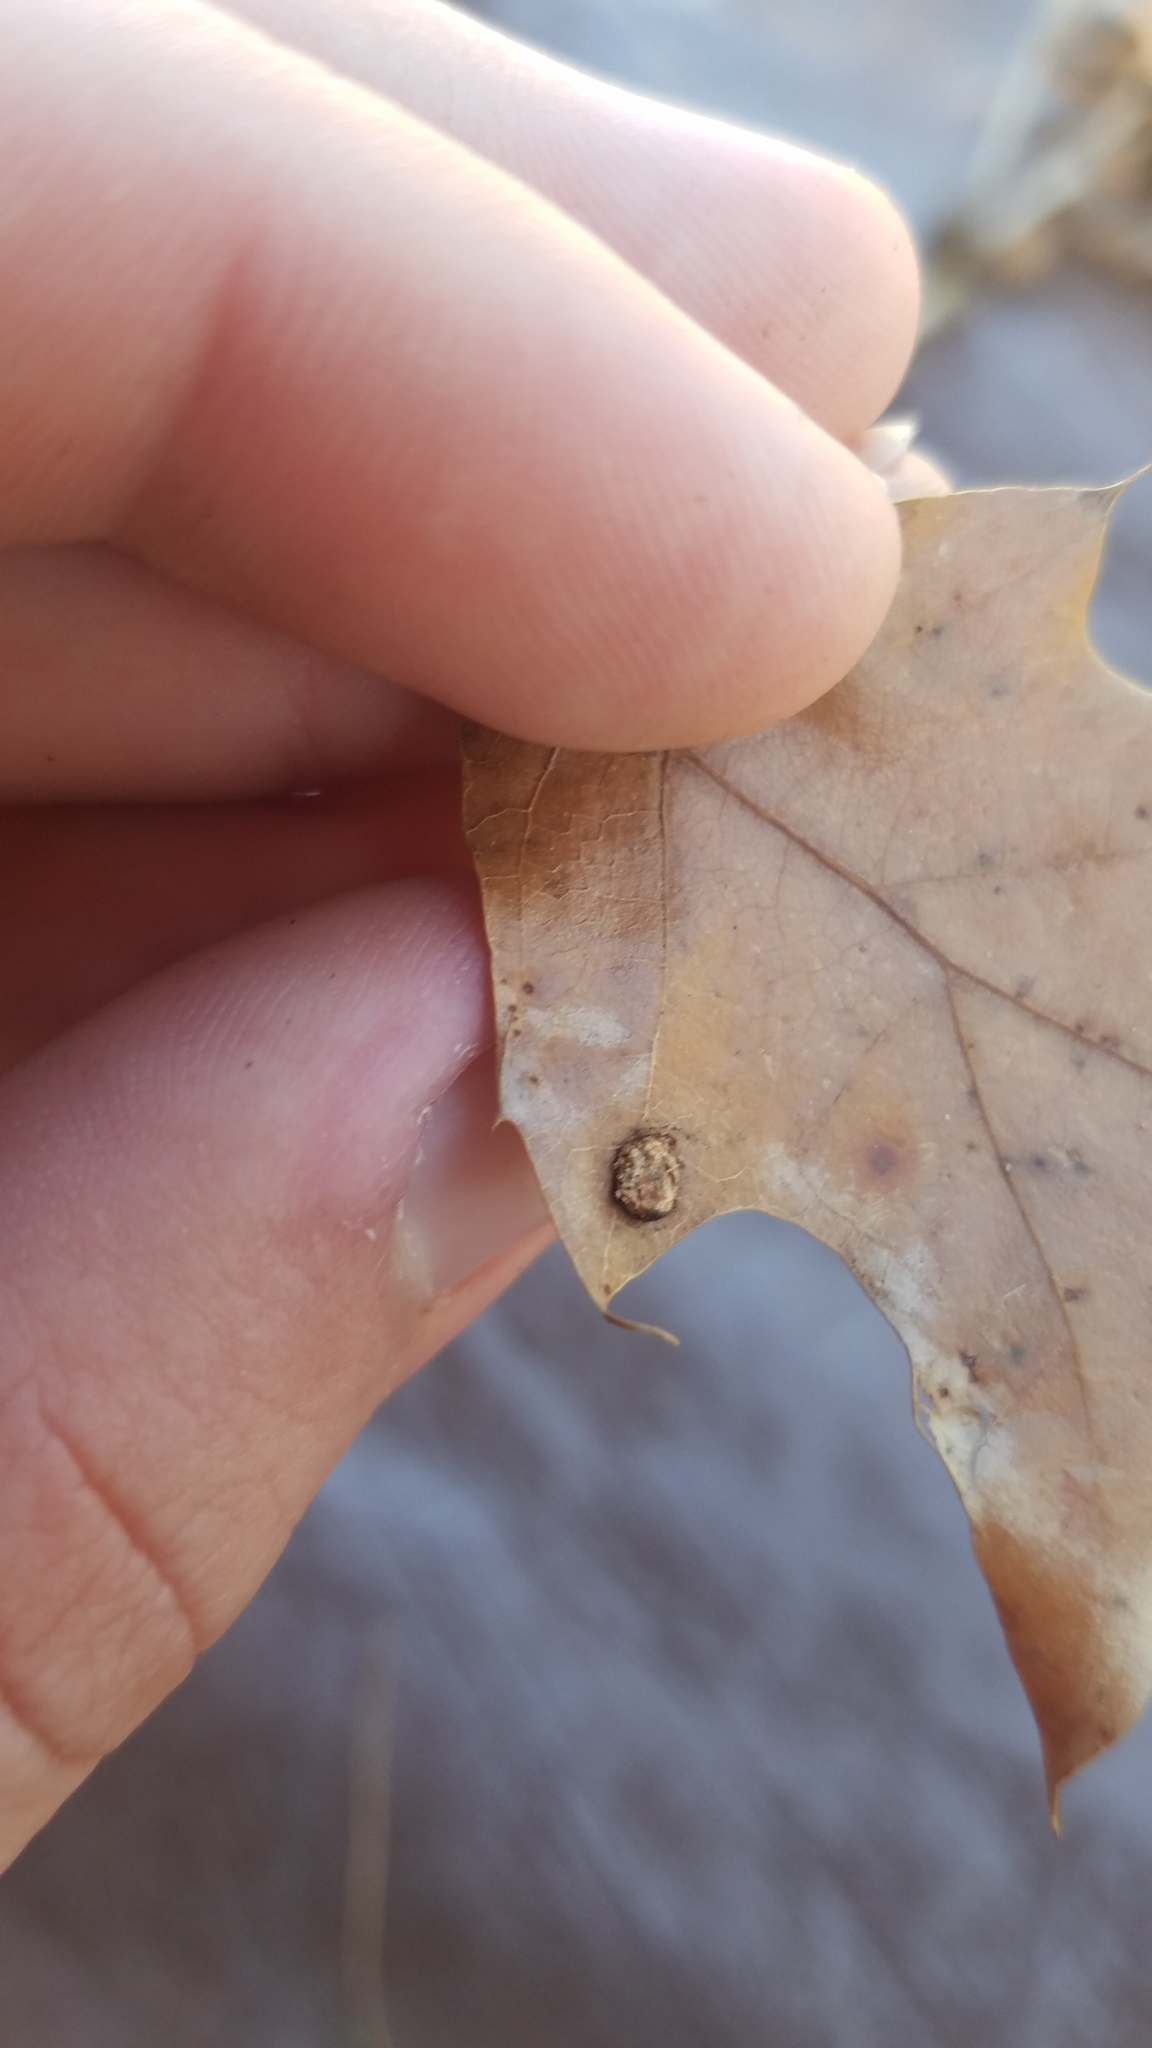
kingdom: Animalia
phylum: Arthropoda
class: Insecta
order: Diptera
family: Cecidomyiidae
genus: Polystepha
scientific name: Polystepha pilulae
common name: Oak leaf gall midge
